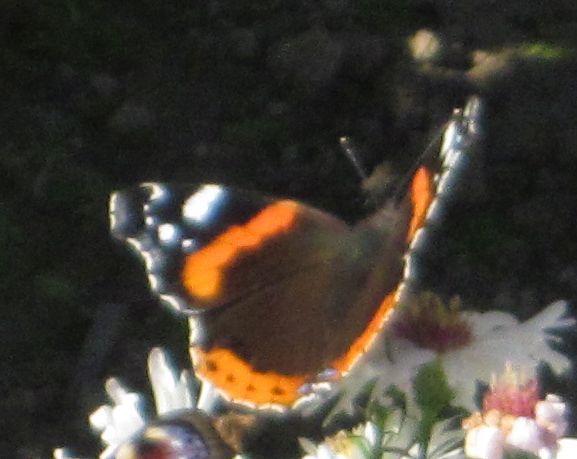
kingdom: Animalia
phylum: Arthropoda
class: Insecta
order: Lepidoptera
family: Nymphalidae
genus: Vanessa
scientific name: Vanessa atalanta
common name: Red admiral
